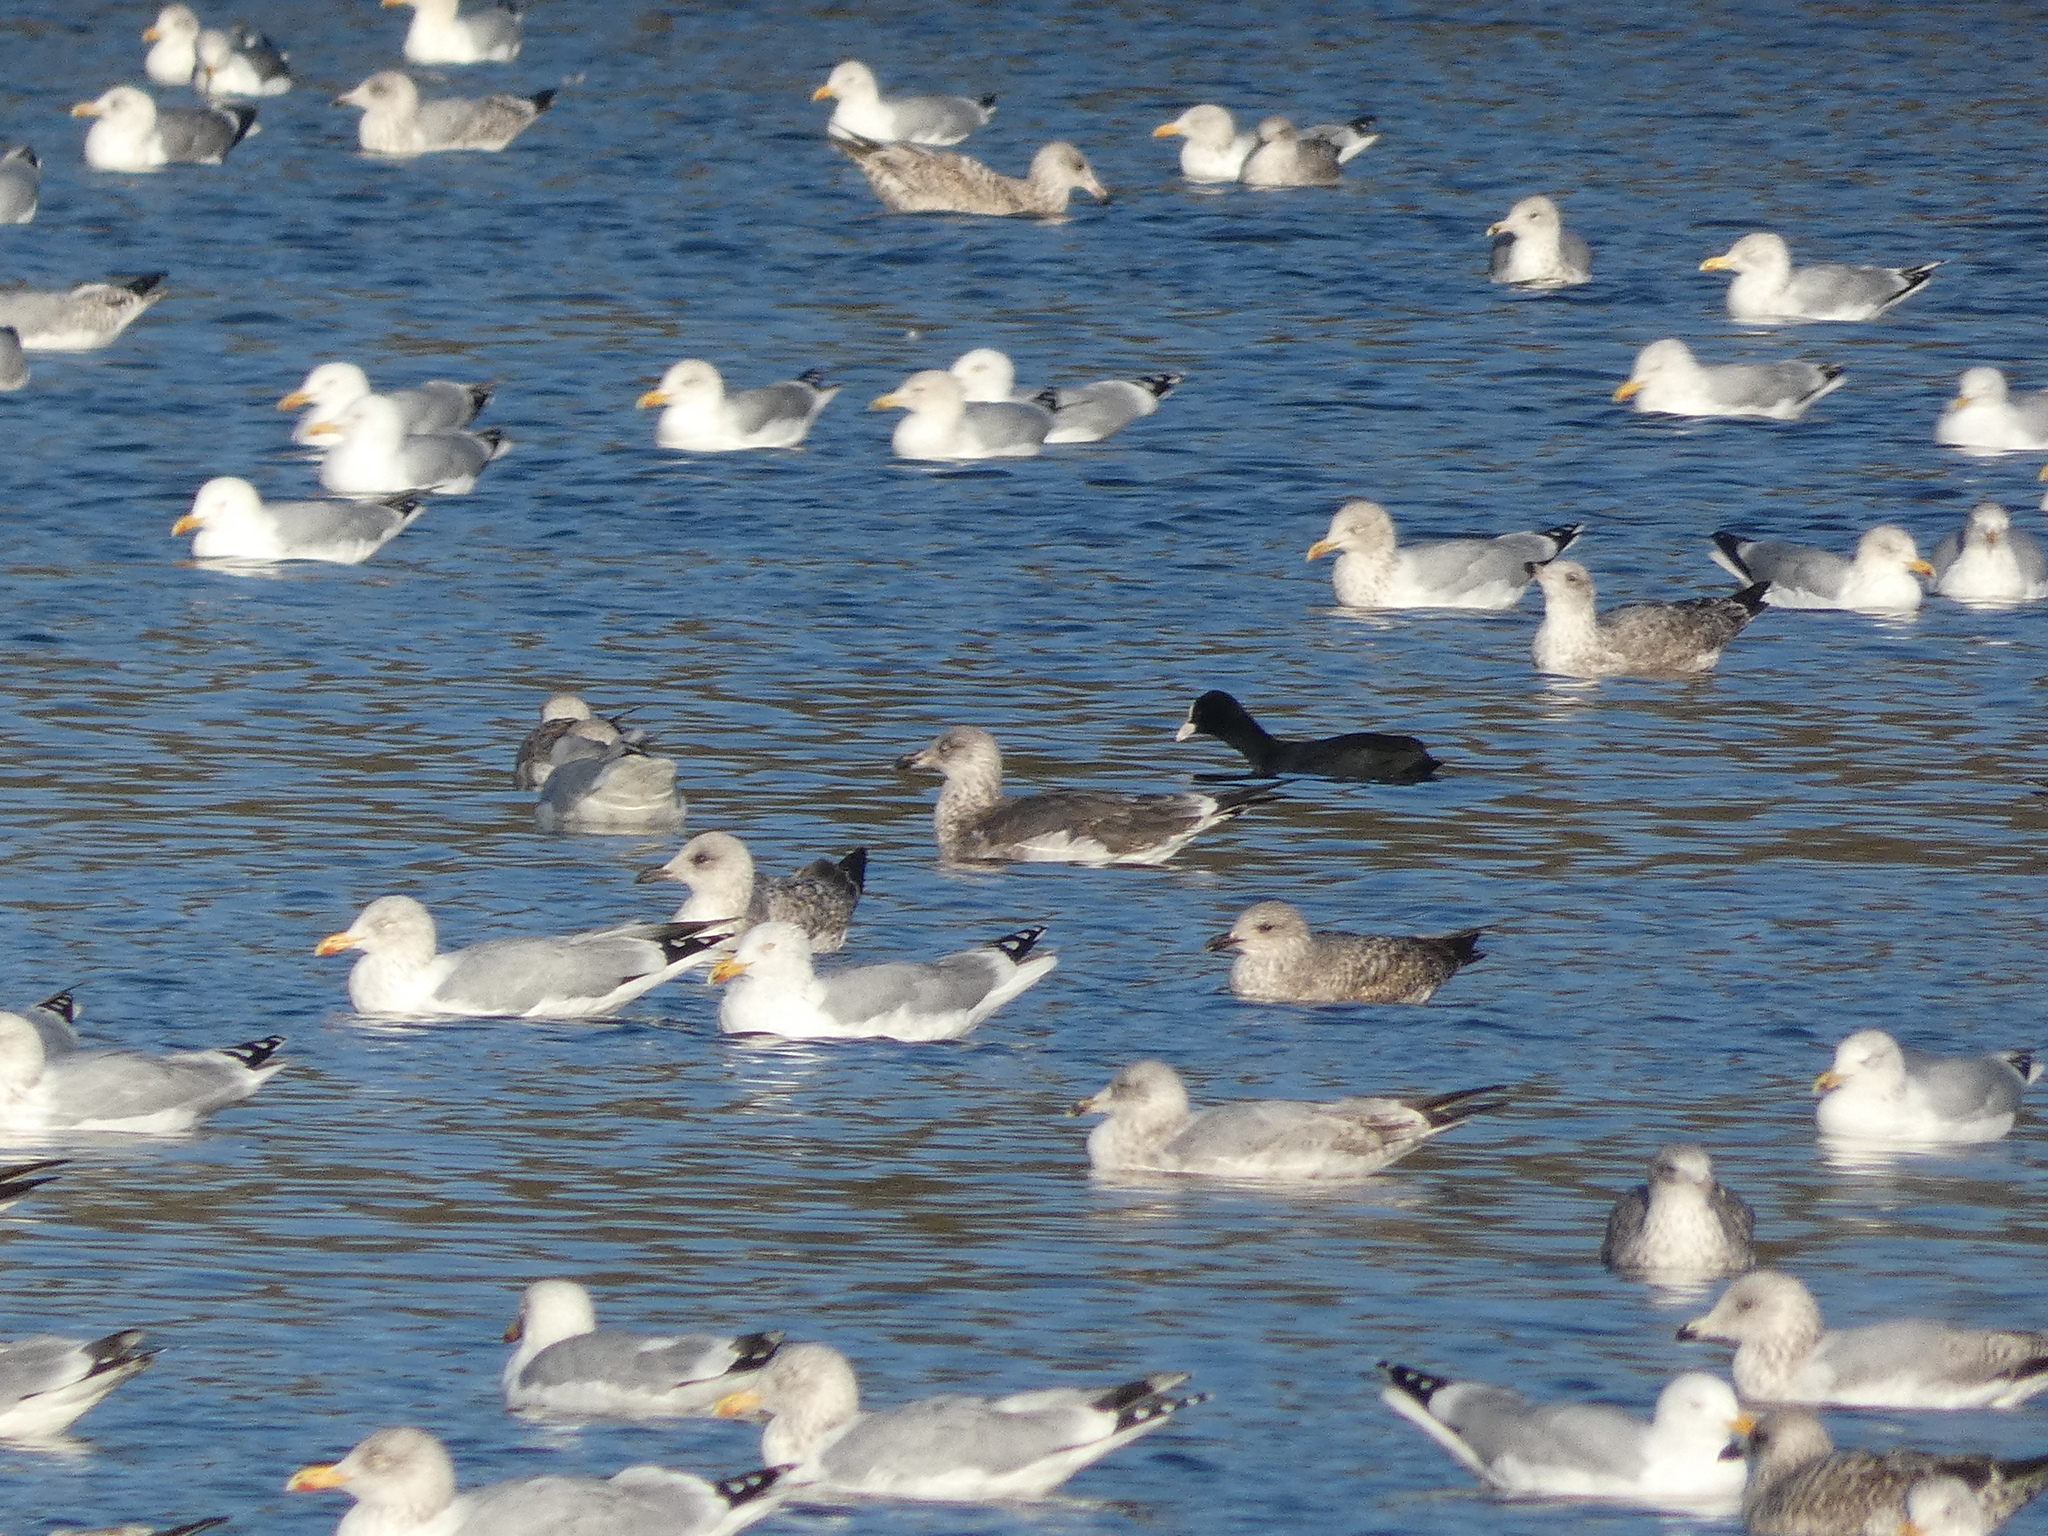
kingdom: Animalia
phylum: Chordata
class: Aves
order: Charadriiformes
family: Laridae
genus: Larus
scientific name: Larus fuscus
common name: Lesser black-backed gull
